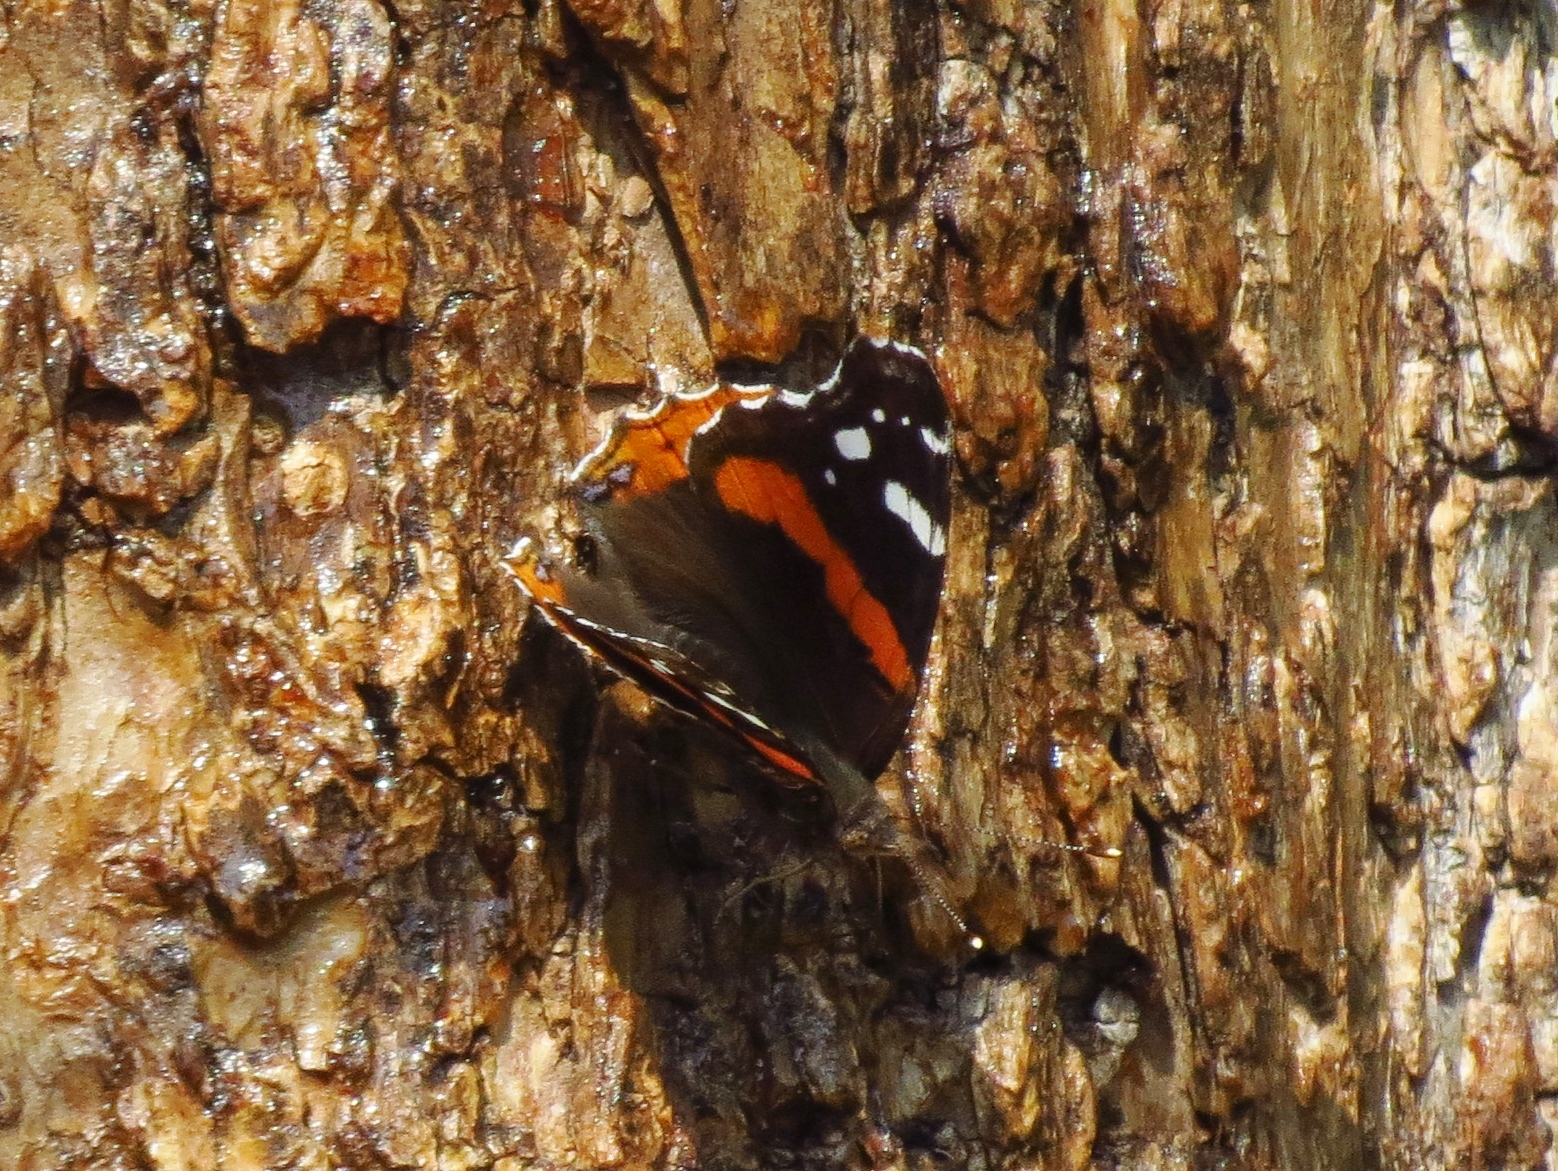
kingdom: Animalia
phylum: Arthropoda
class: Insecta
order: Lepidoptera
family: Nymphalidae
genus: Vanessa
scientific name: Vanessa atalanta
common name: Red admiral
